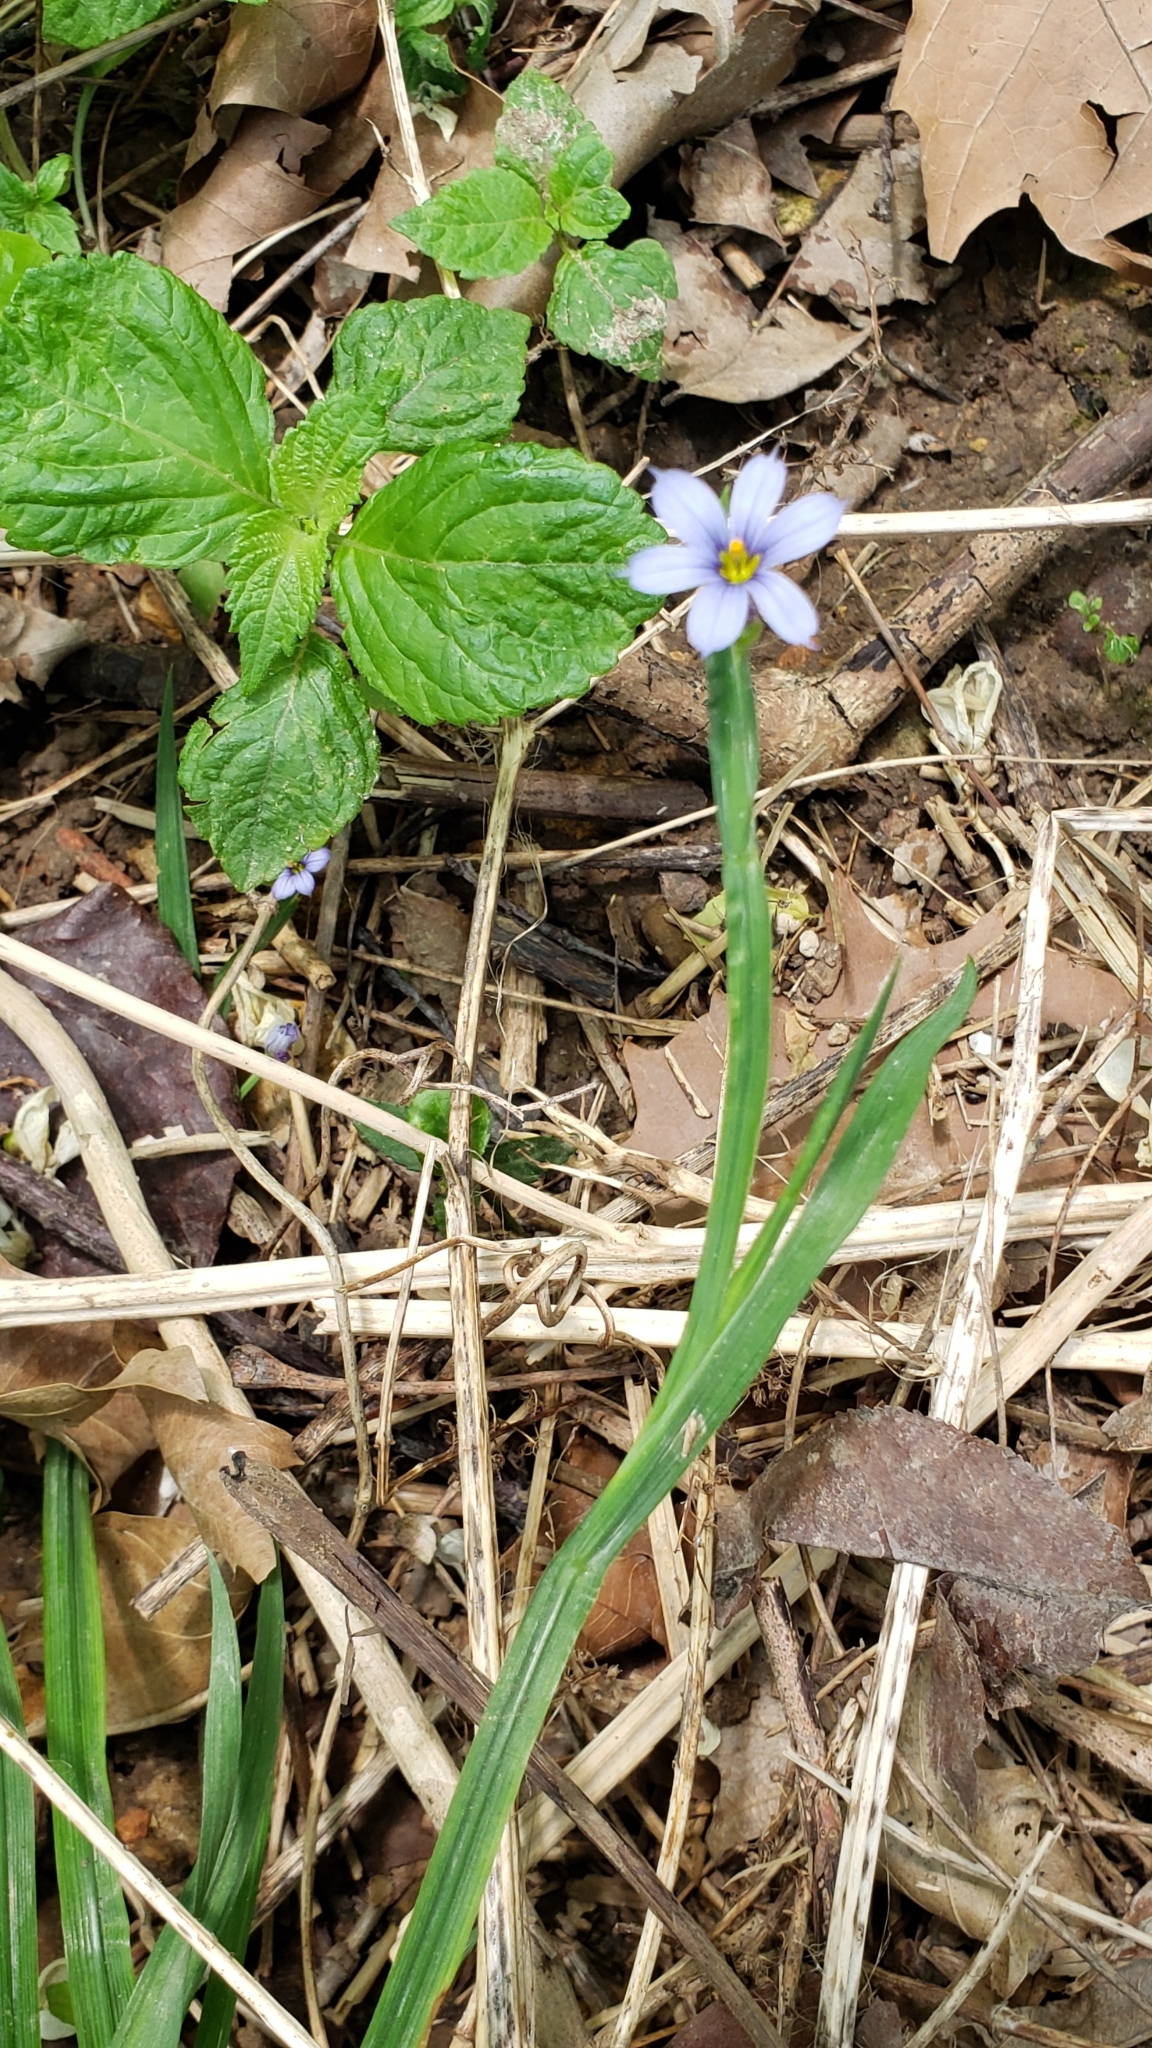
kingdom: Plantae
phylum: Tracheophyta
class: Liliopsida
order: Asparagales
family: Iridaceae
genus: Sisyrinchium
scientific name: Sisyrinchium angustifolium
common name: Narrow-leaf blue-eyed-grass
